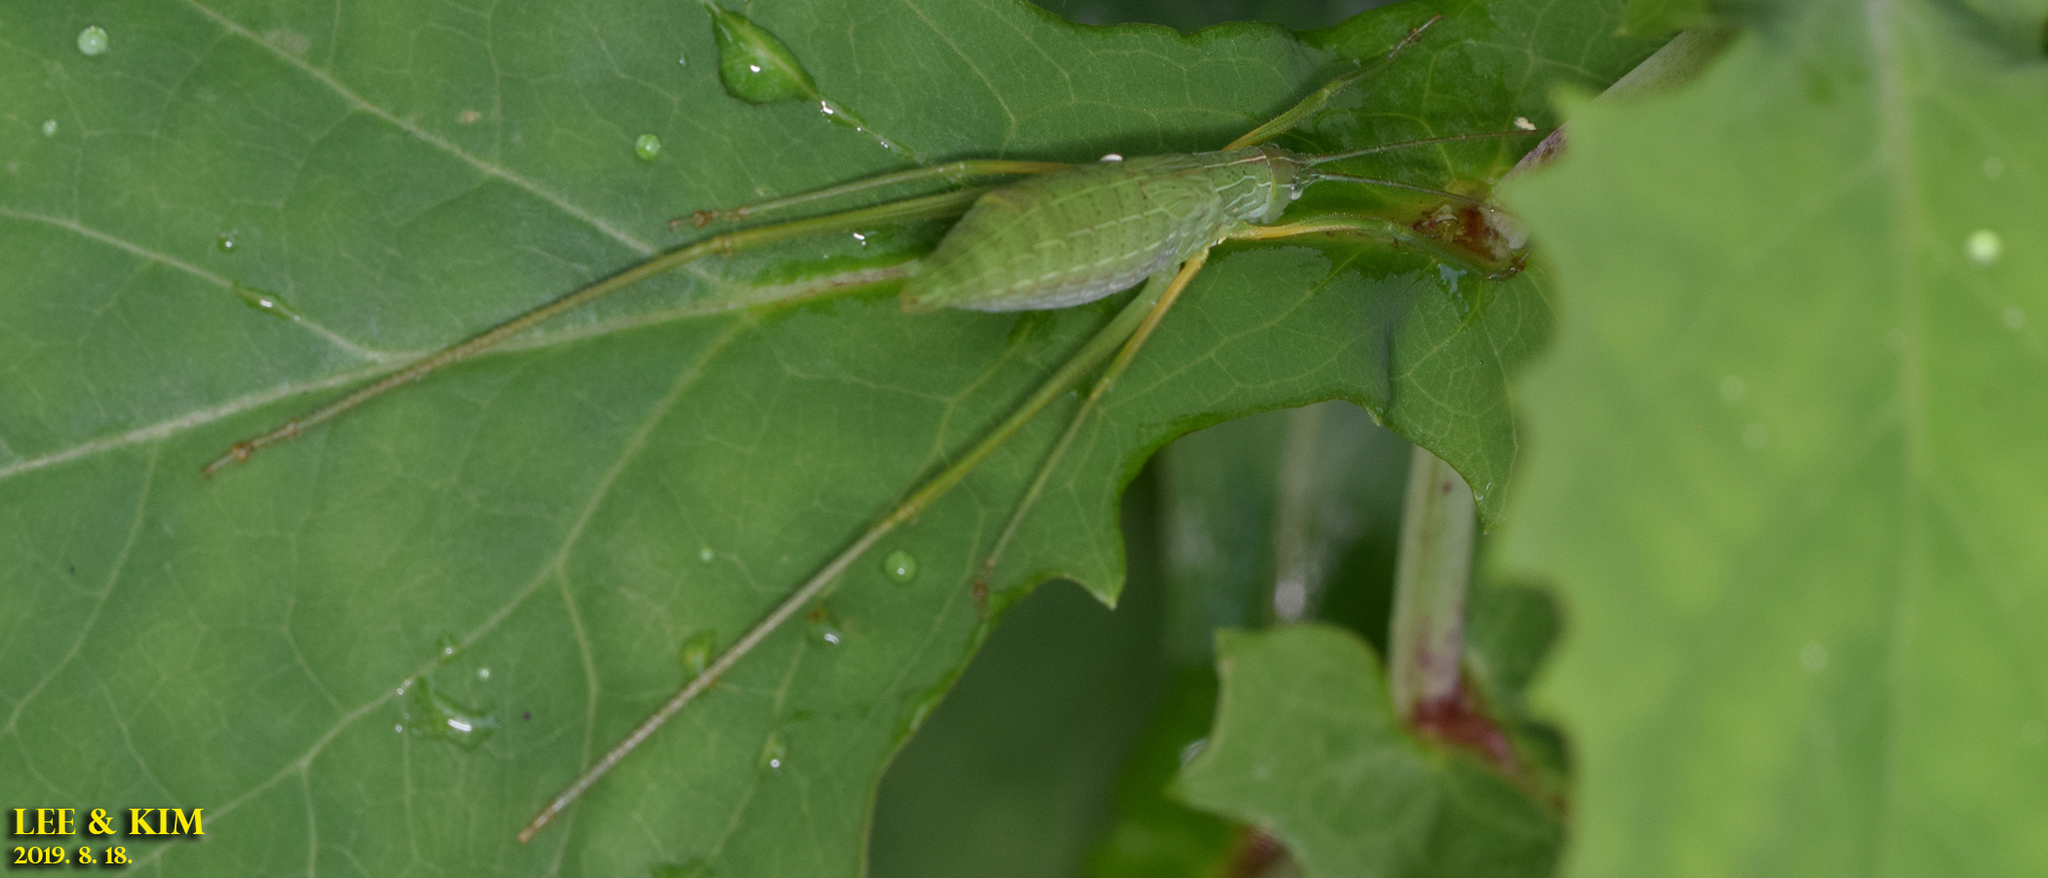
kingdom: Animalia
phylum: Arthropoda
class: Insecta
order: Orthoptera
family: Tettigoniidae
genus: Elimaea
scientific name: Elimaea fallax
